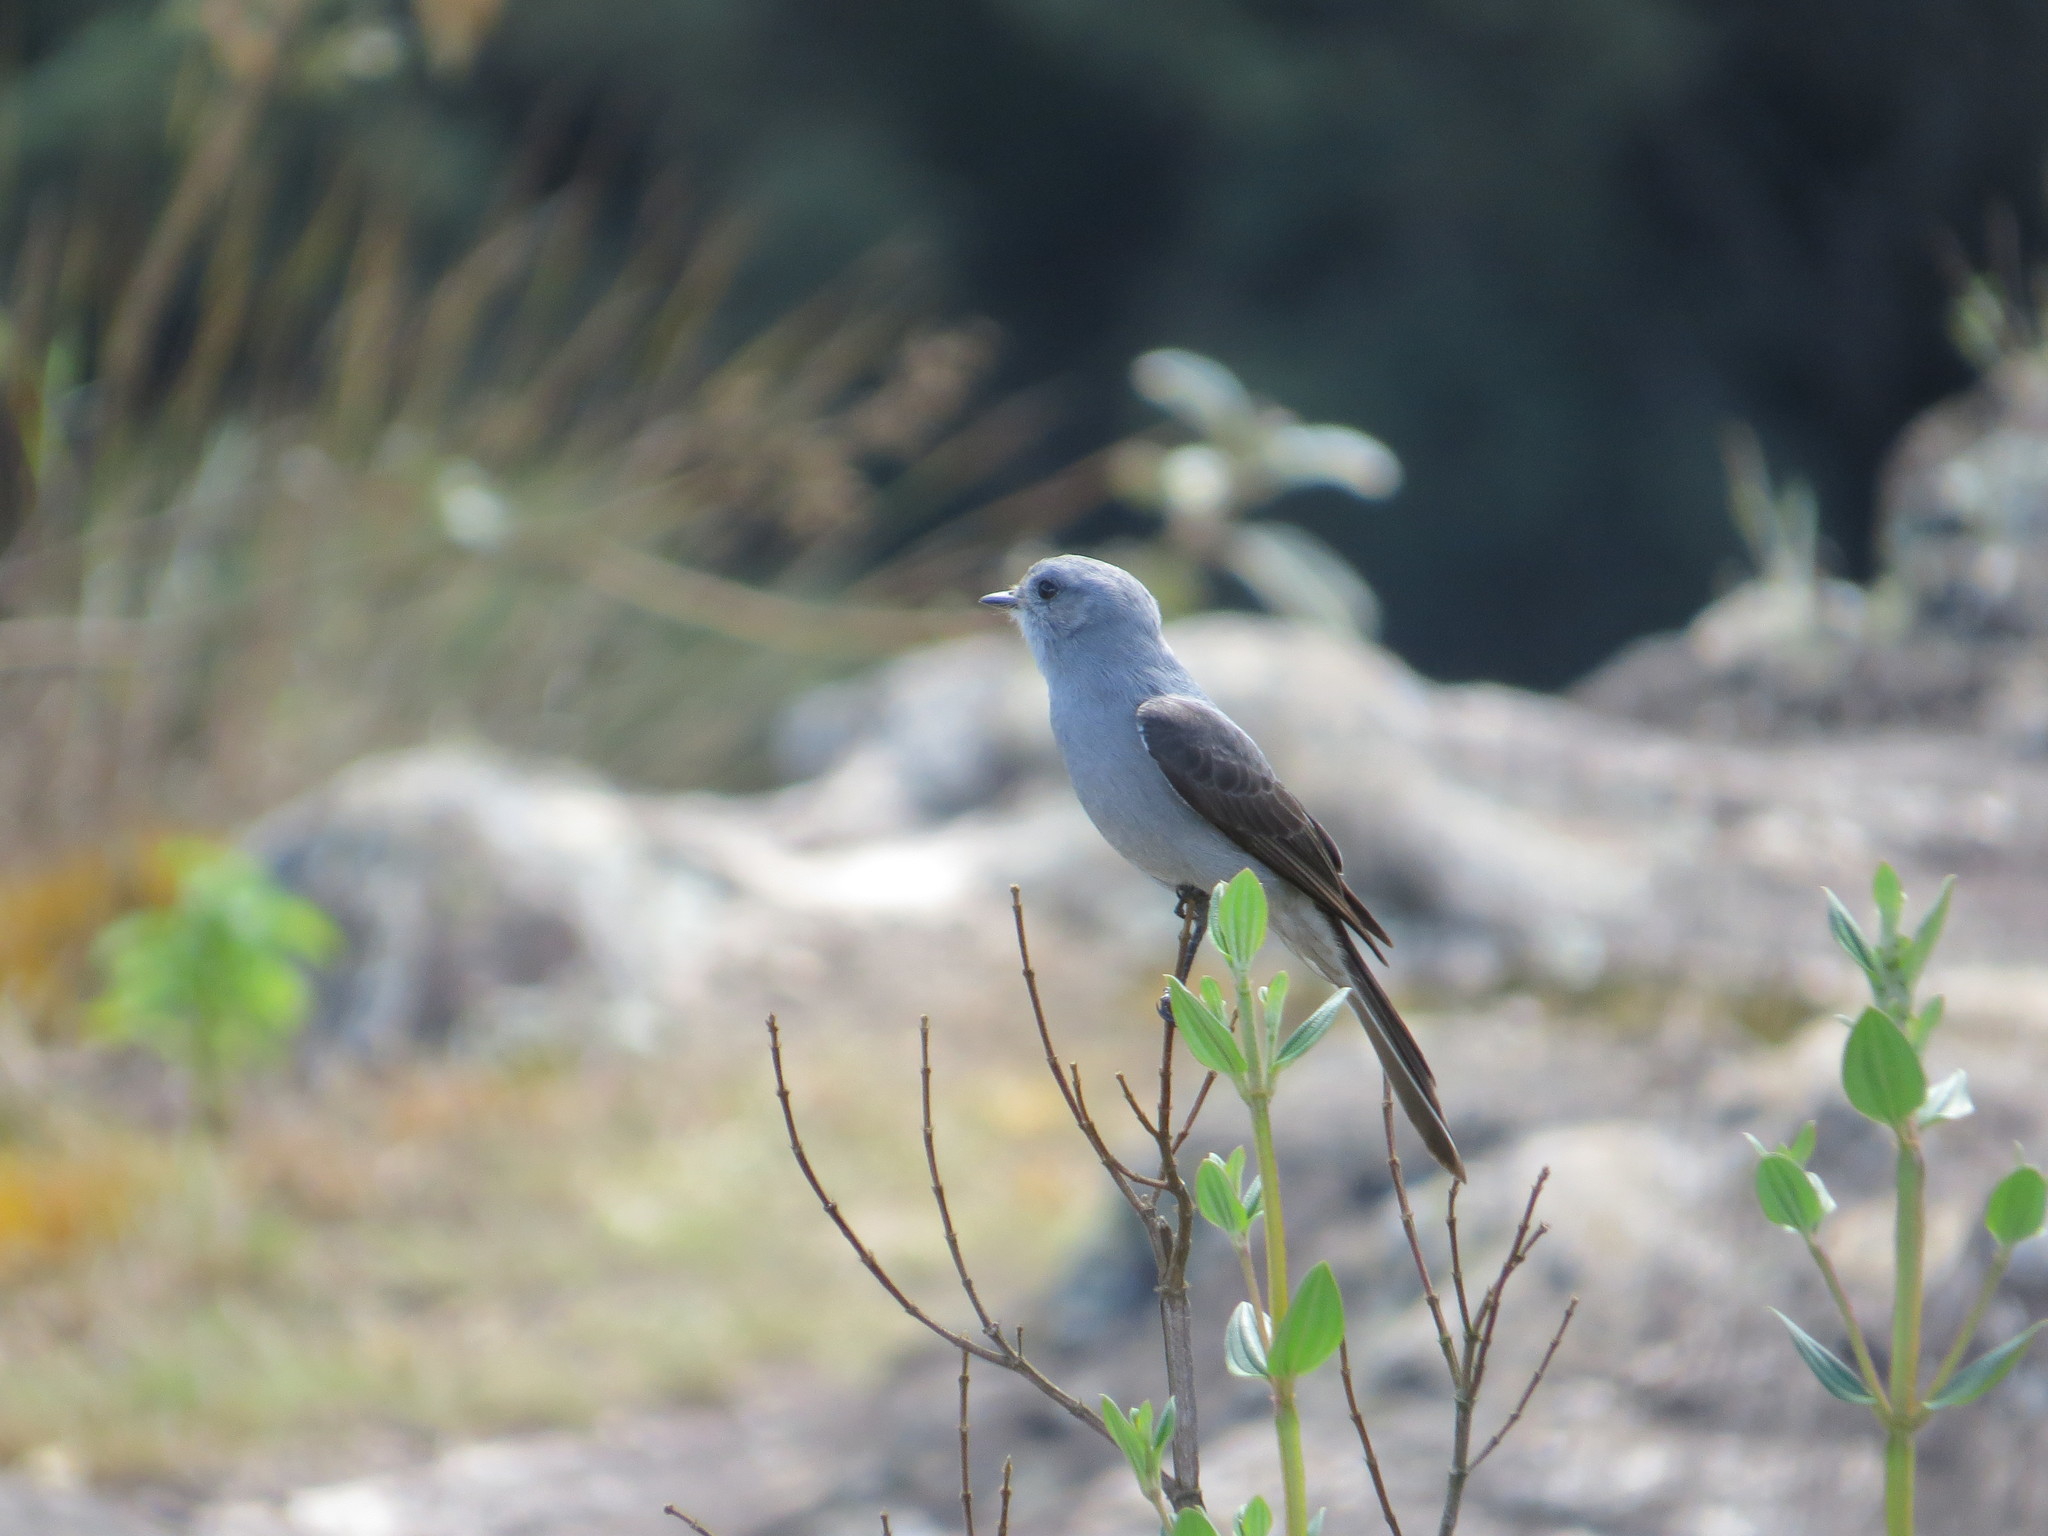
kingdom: Animalia
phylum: Chordata
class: Aves
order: Passeriformes
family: Tyrannidae
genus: Muscipipra
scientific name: Muscipipra vetula
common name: Shear-tailed grey tyrant
